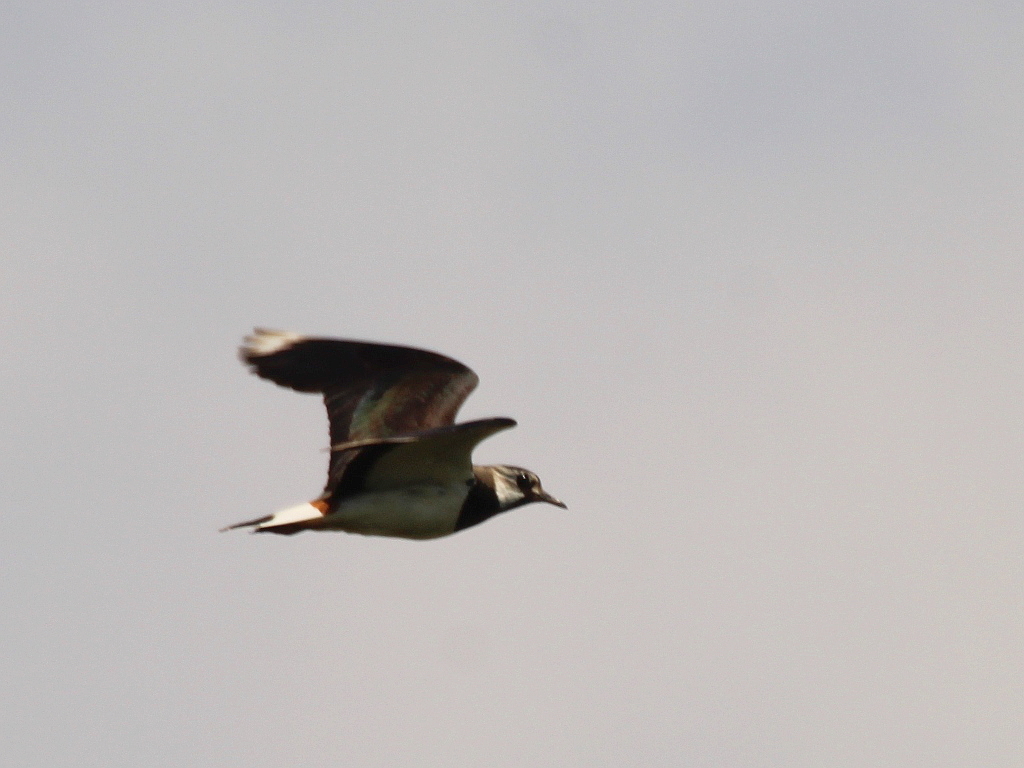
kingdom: Animalia
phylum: Chordata
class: Aves
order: Charadriiformes
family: Charadriidae
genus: Vanellus
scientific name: Vanellus vanellus
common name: Northern lapwing
